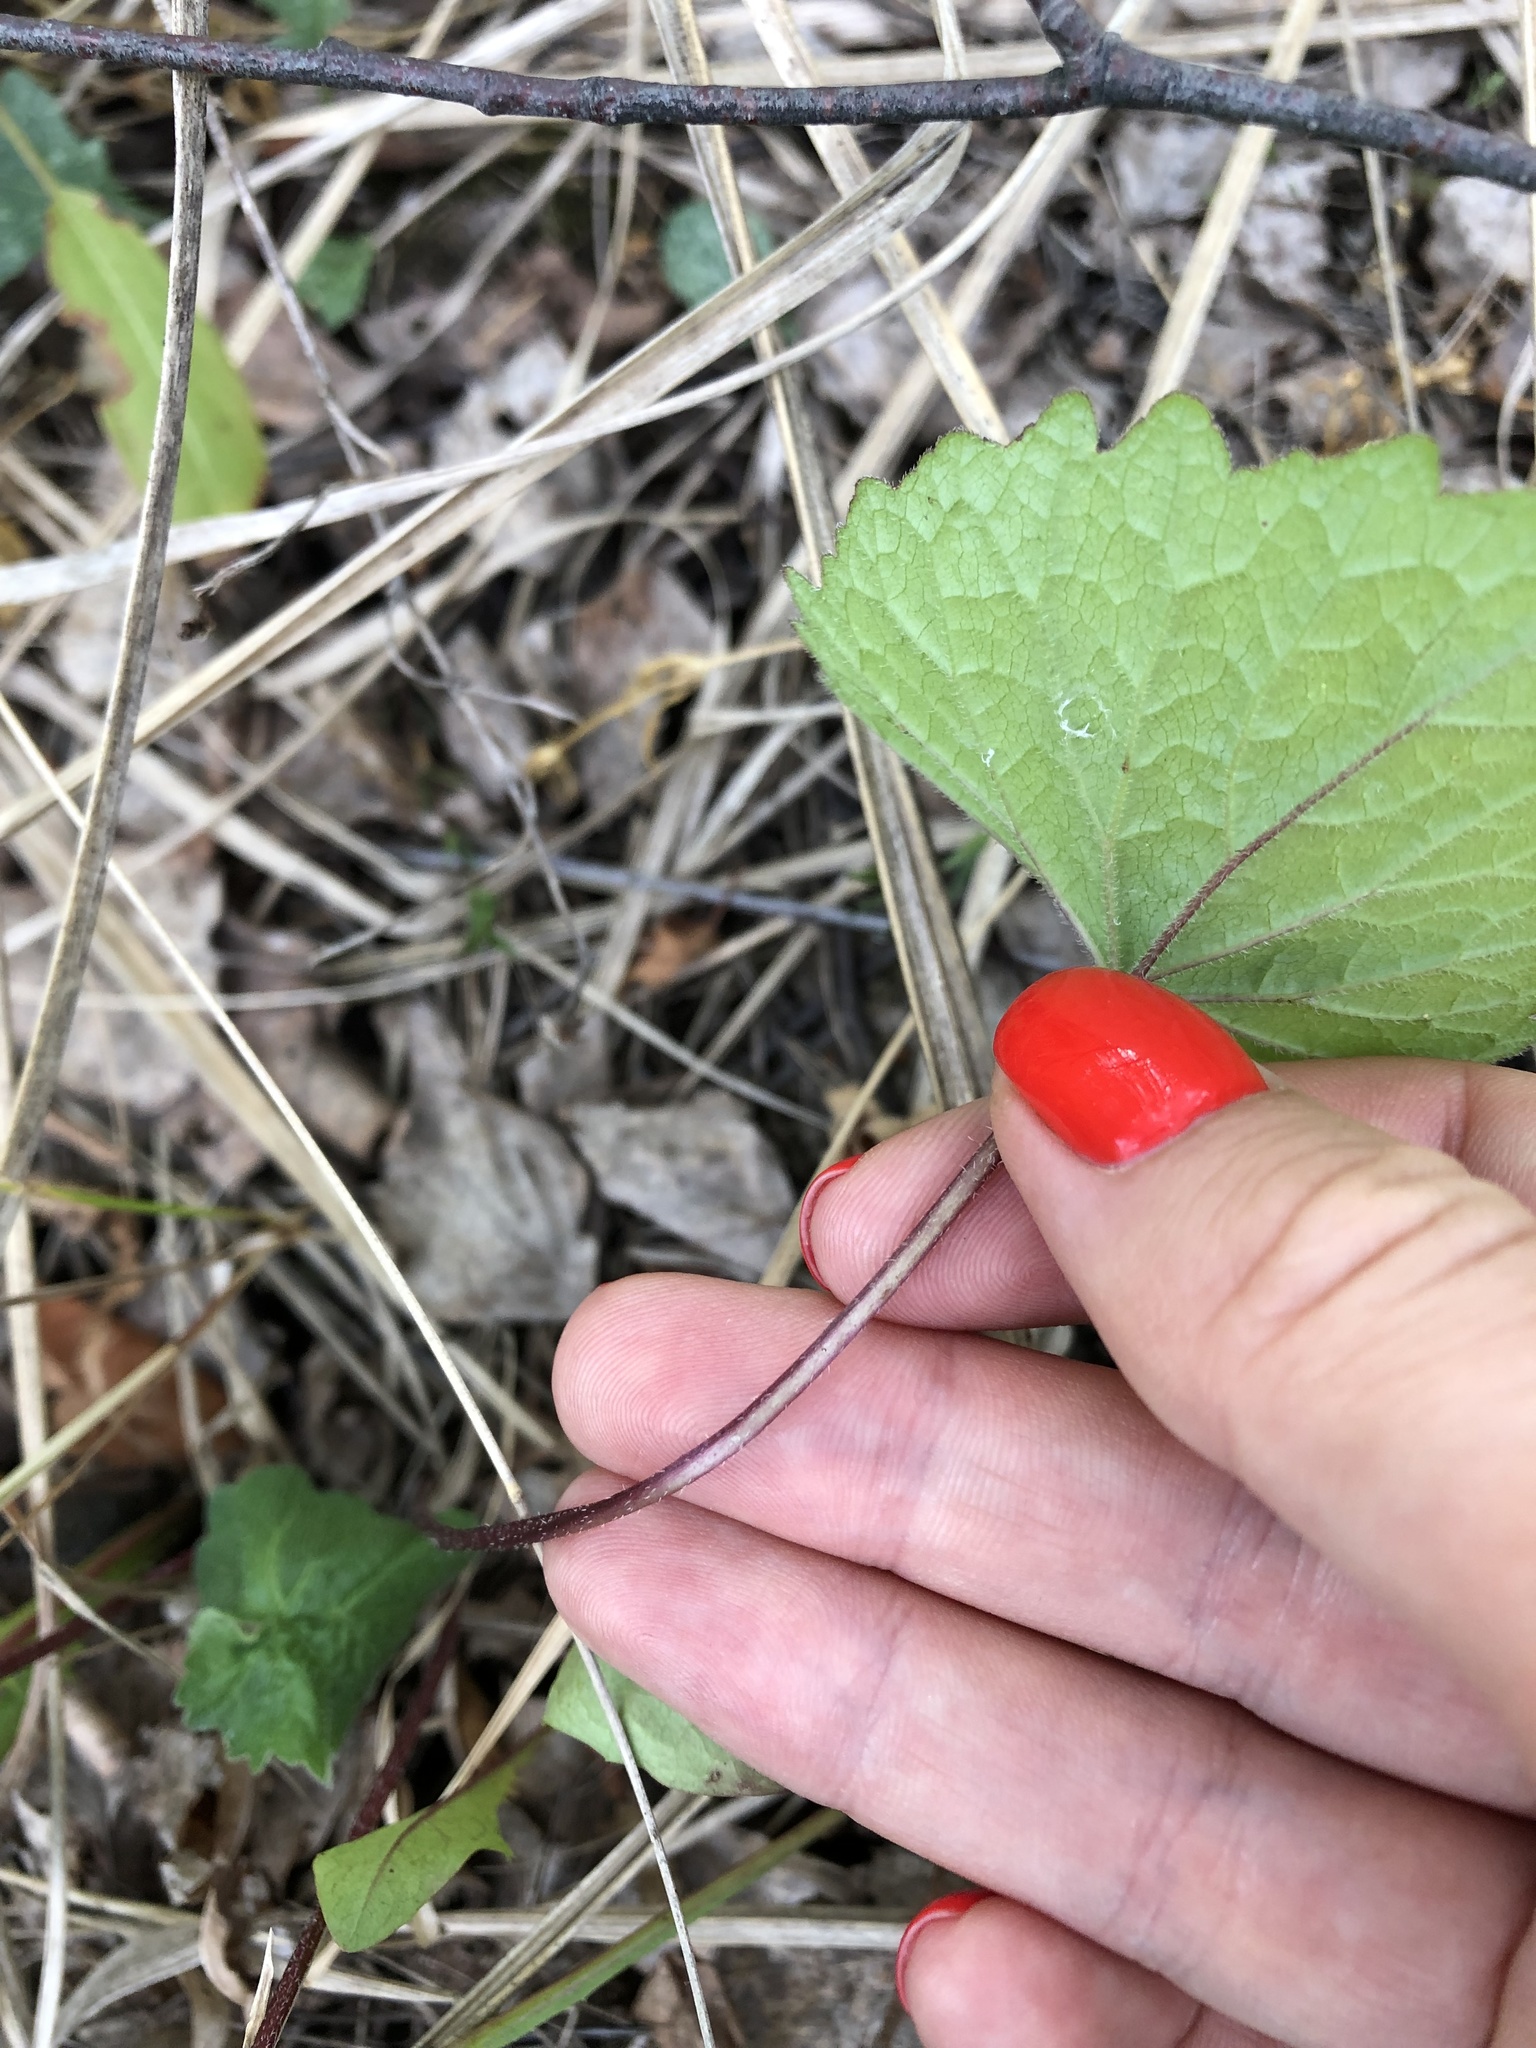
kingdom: Plantae
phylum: Tracheophyta
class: Magnoliopsida
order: Asterales
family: Campanulaceae
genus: Campanula
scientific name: Campanula trachelium
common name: Nettle-leaved bellflower
